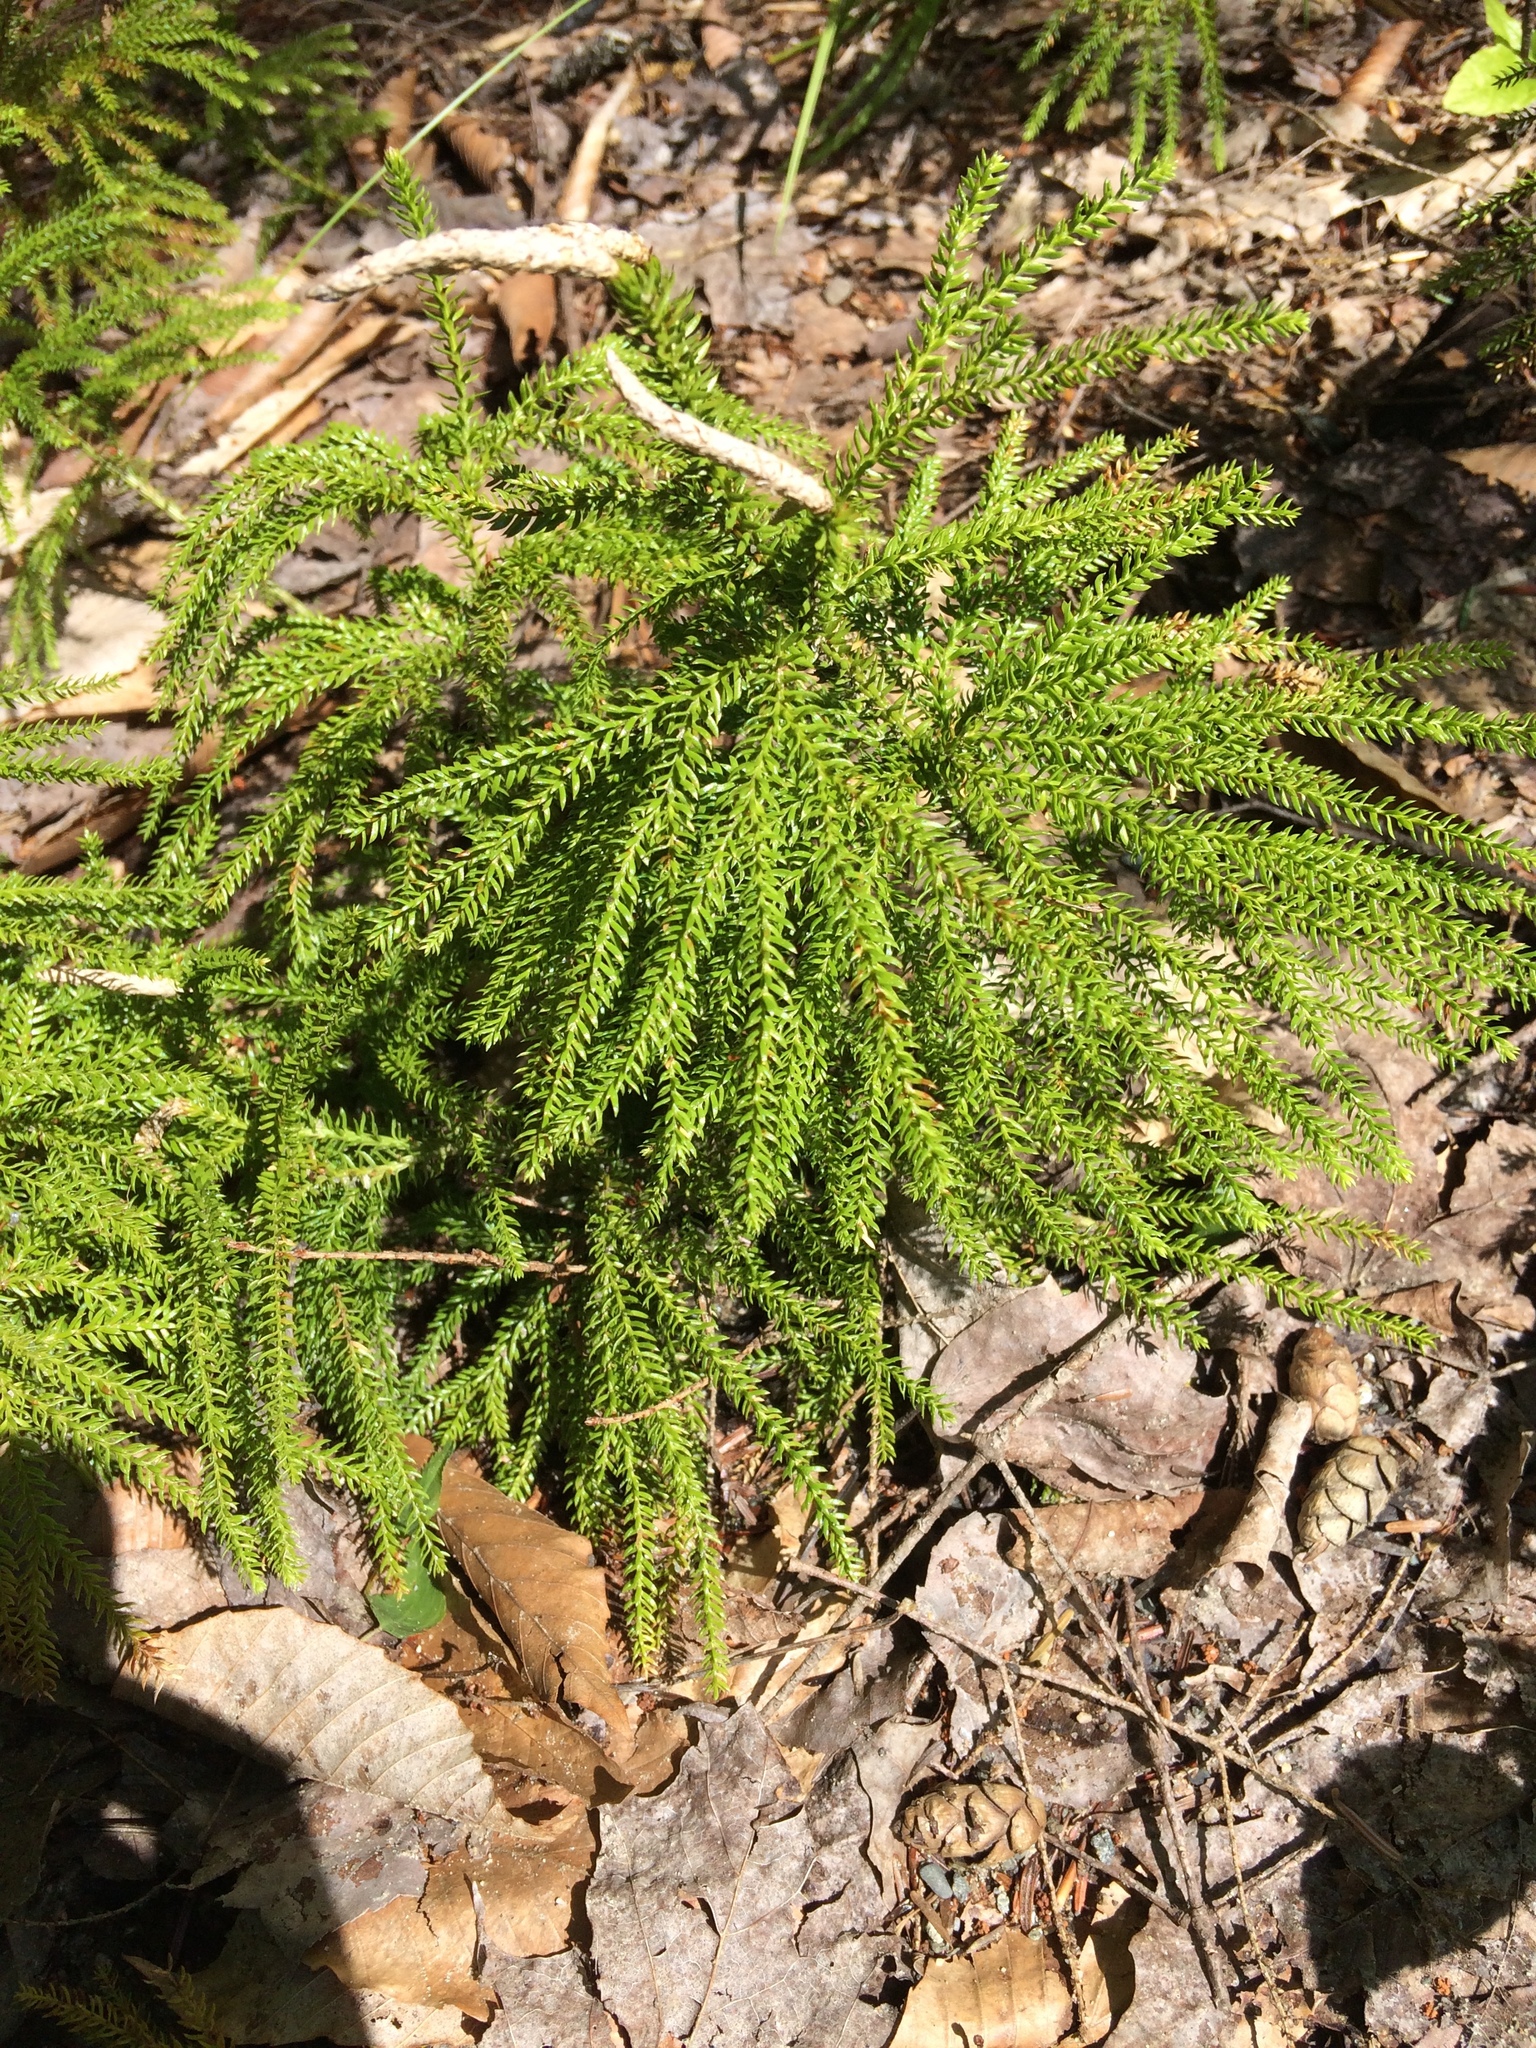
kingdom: Plantae
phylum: Tracheophyta
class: Lycopodiopsida
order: Lycopodiales
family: Lycopodiaceae
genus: Dendrolycopodium
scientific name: Dendrolycopodium dendroideum
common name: Northern tree-clubmoss
